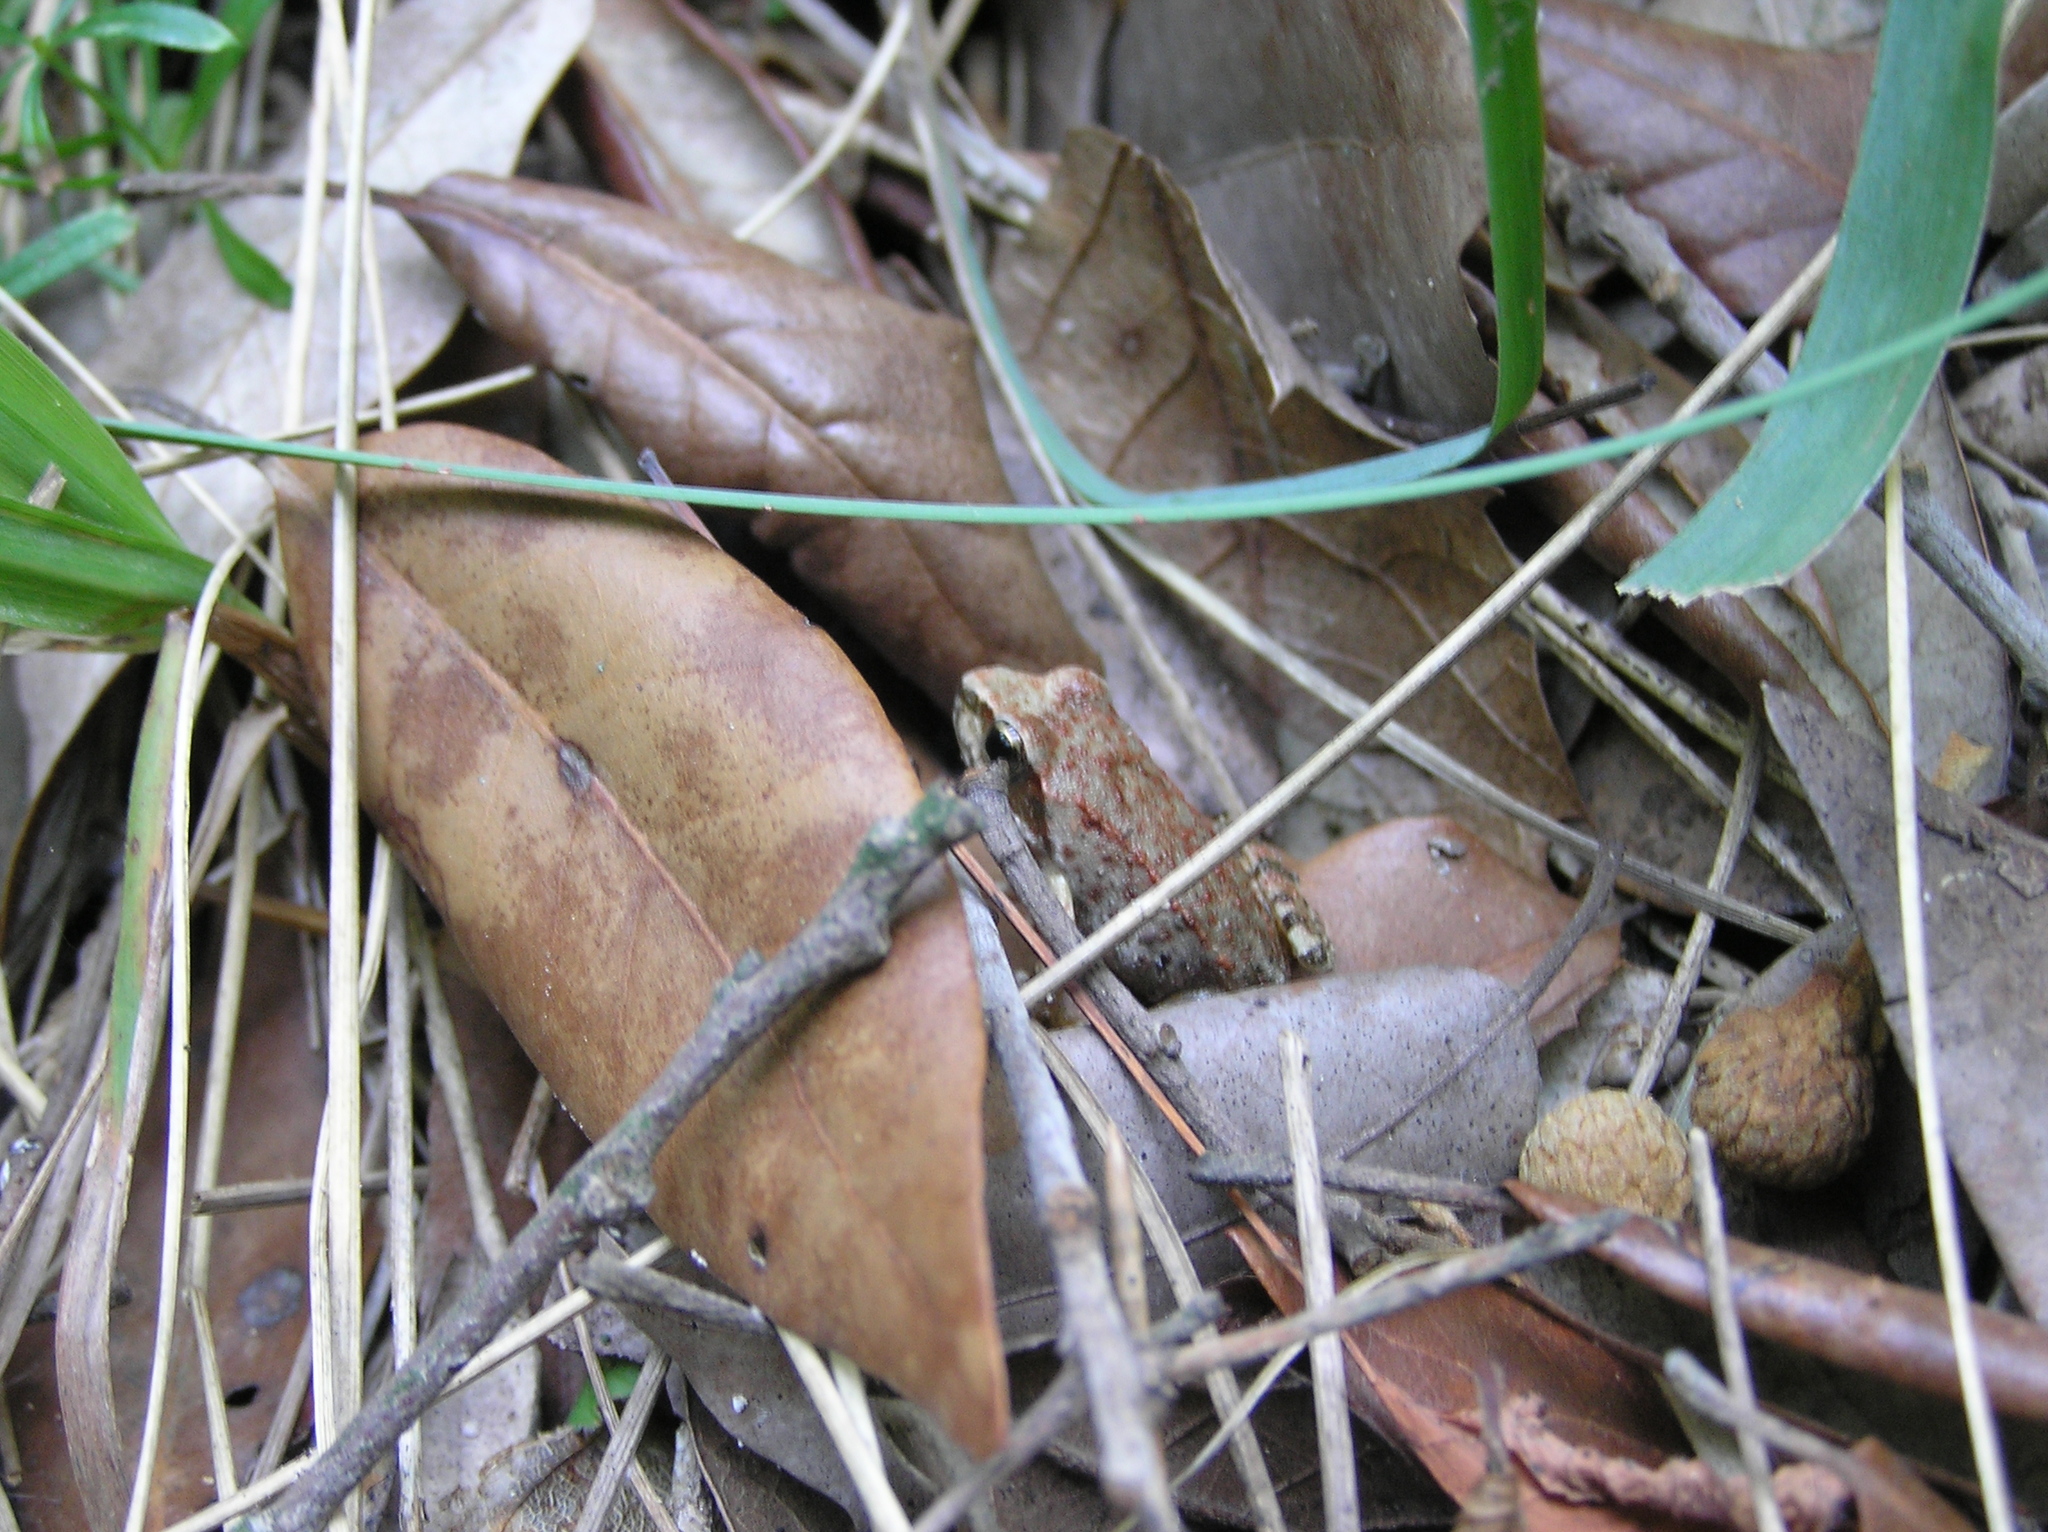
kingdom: Animalia
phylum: Chordata
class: Amphibia
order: Anura
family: Ranidae
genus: Rana
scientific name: Rana graeca
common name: Greek stream frog
